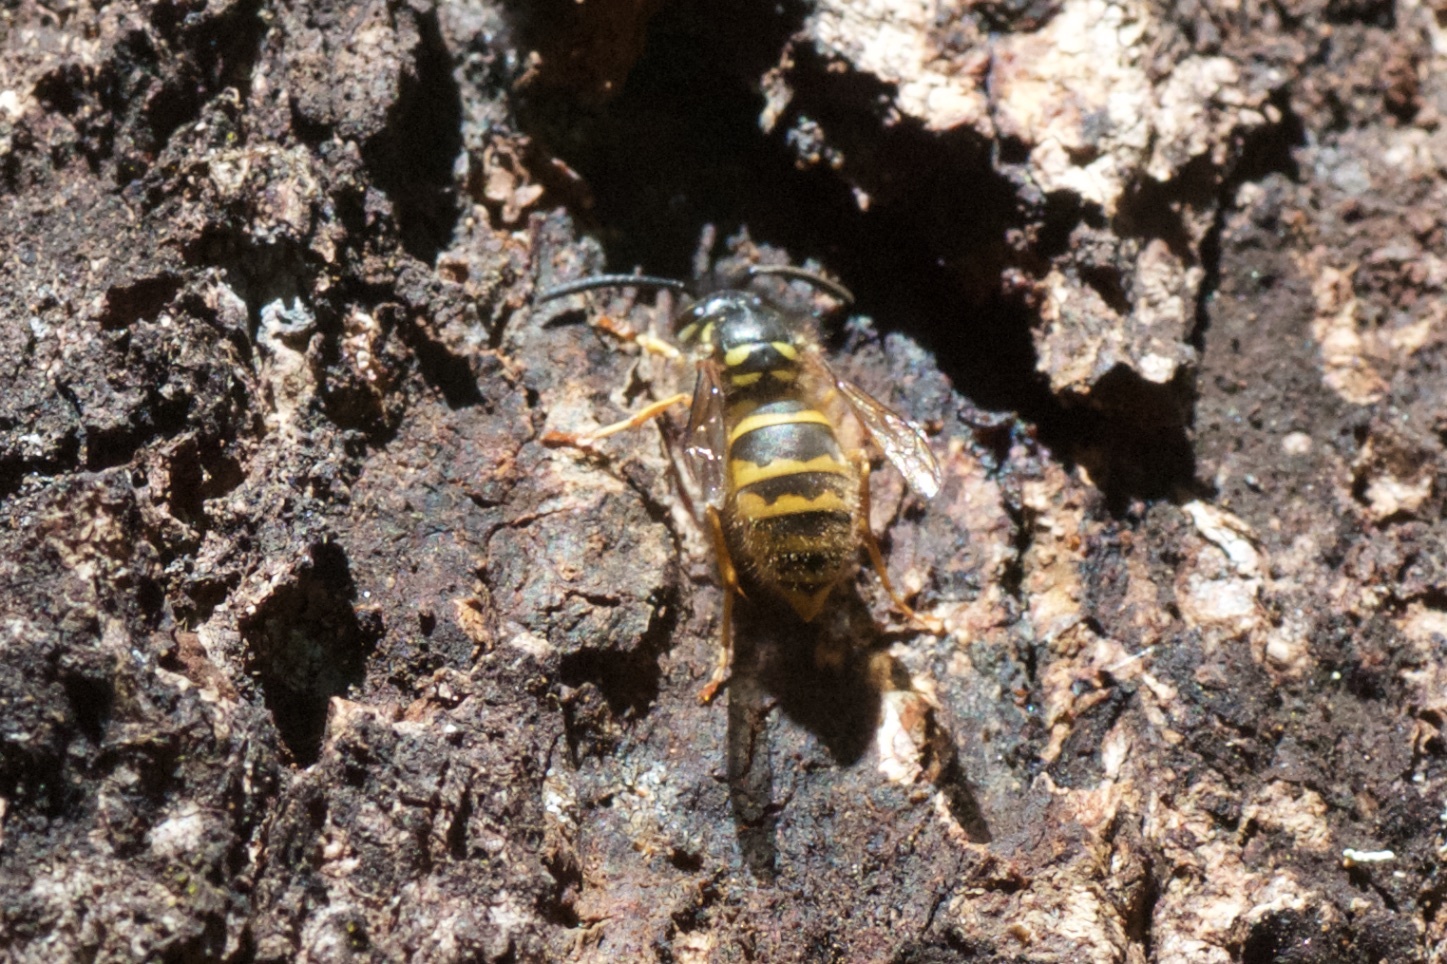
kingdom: Animalia
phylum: Arthropoda
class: Insecta
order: Hymenoptera
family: Vespidae
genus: Vespula
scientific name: Vespula vulgaris
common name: Common wasp
